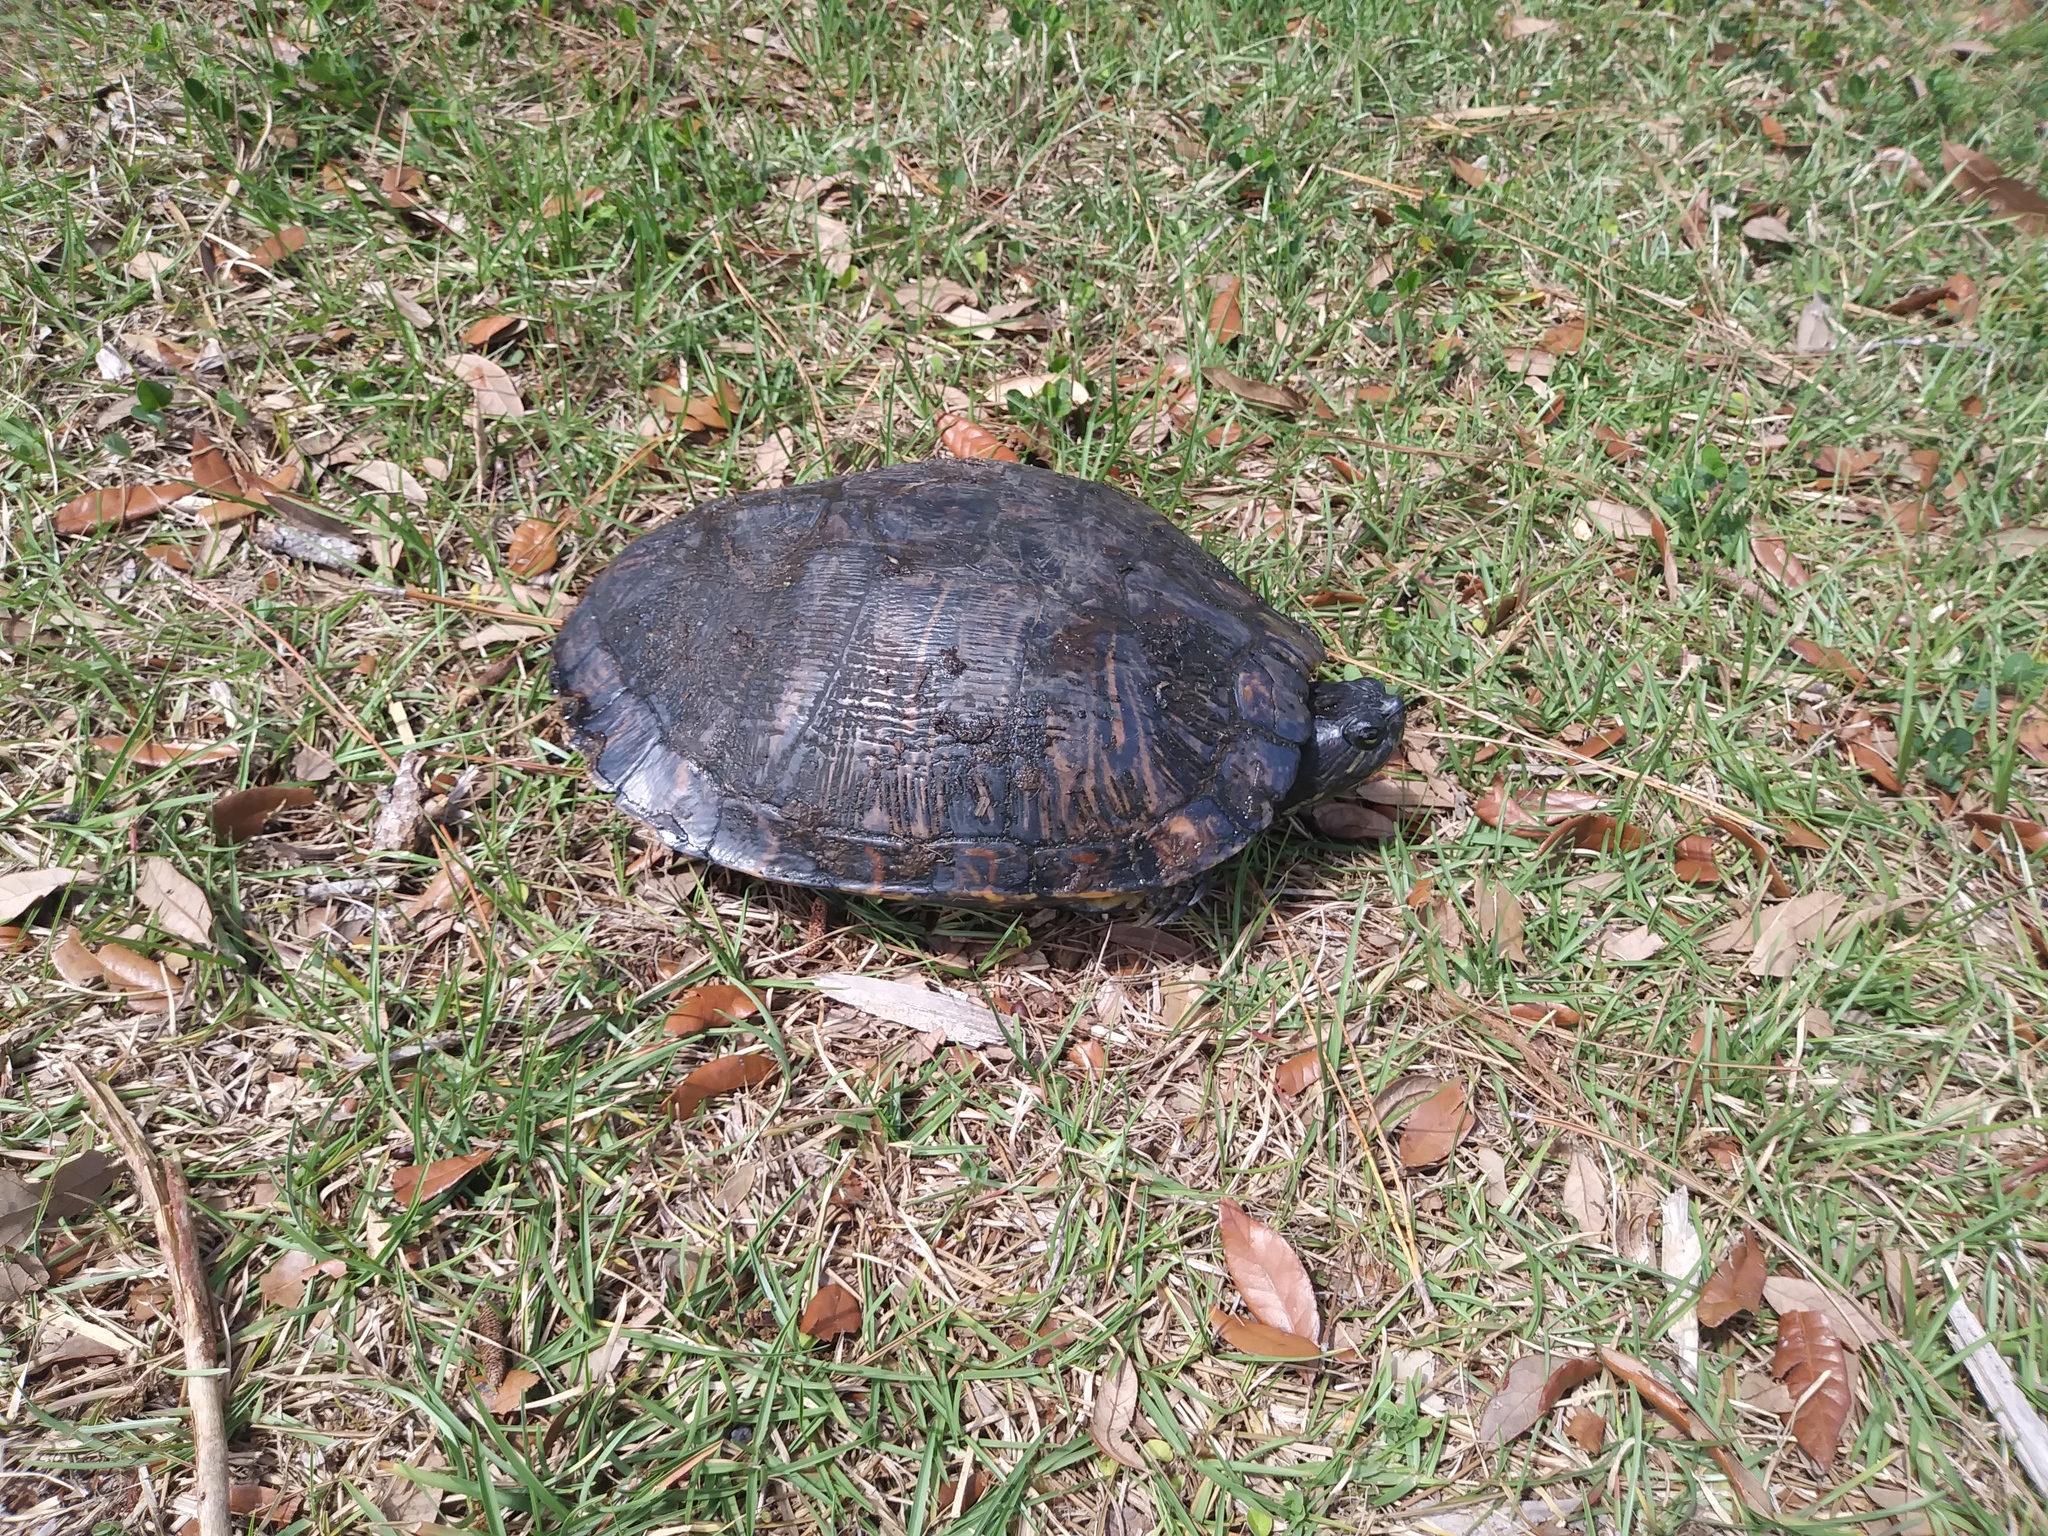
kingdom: Animalia
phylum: Chordata
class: Testudines
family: Emydidae
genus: Trachemys
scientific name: Trachemys scripta
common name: Slider
